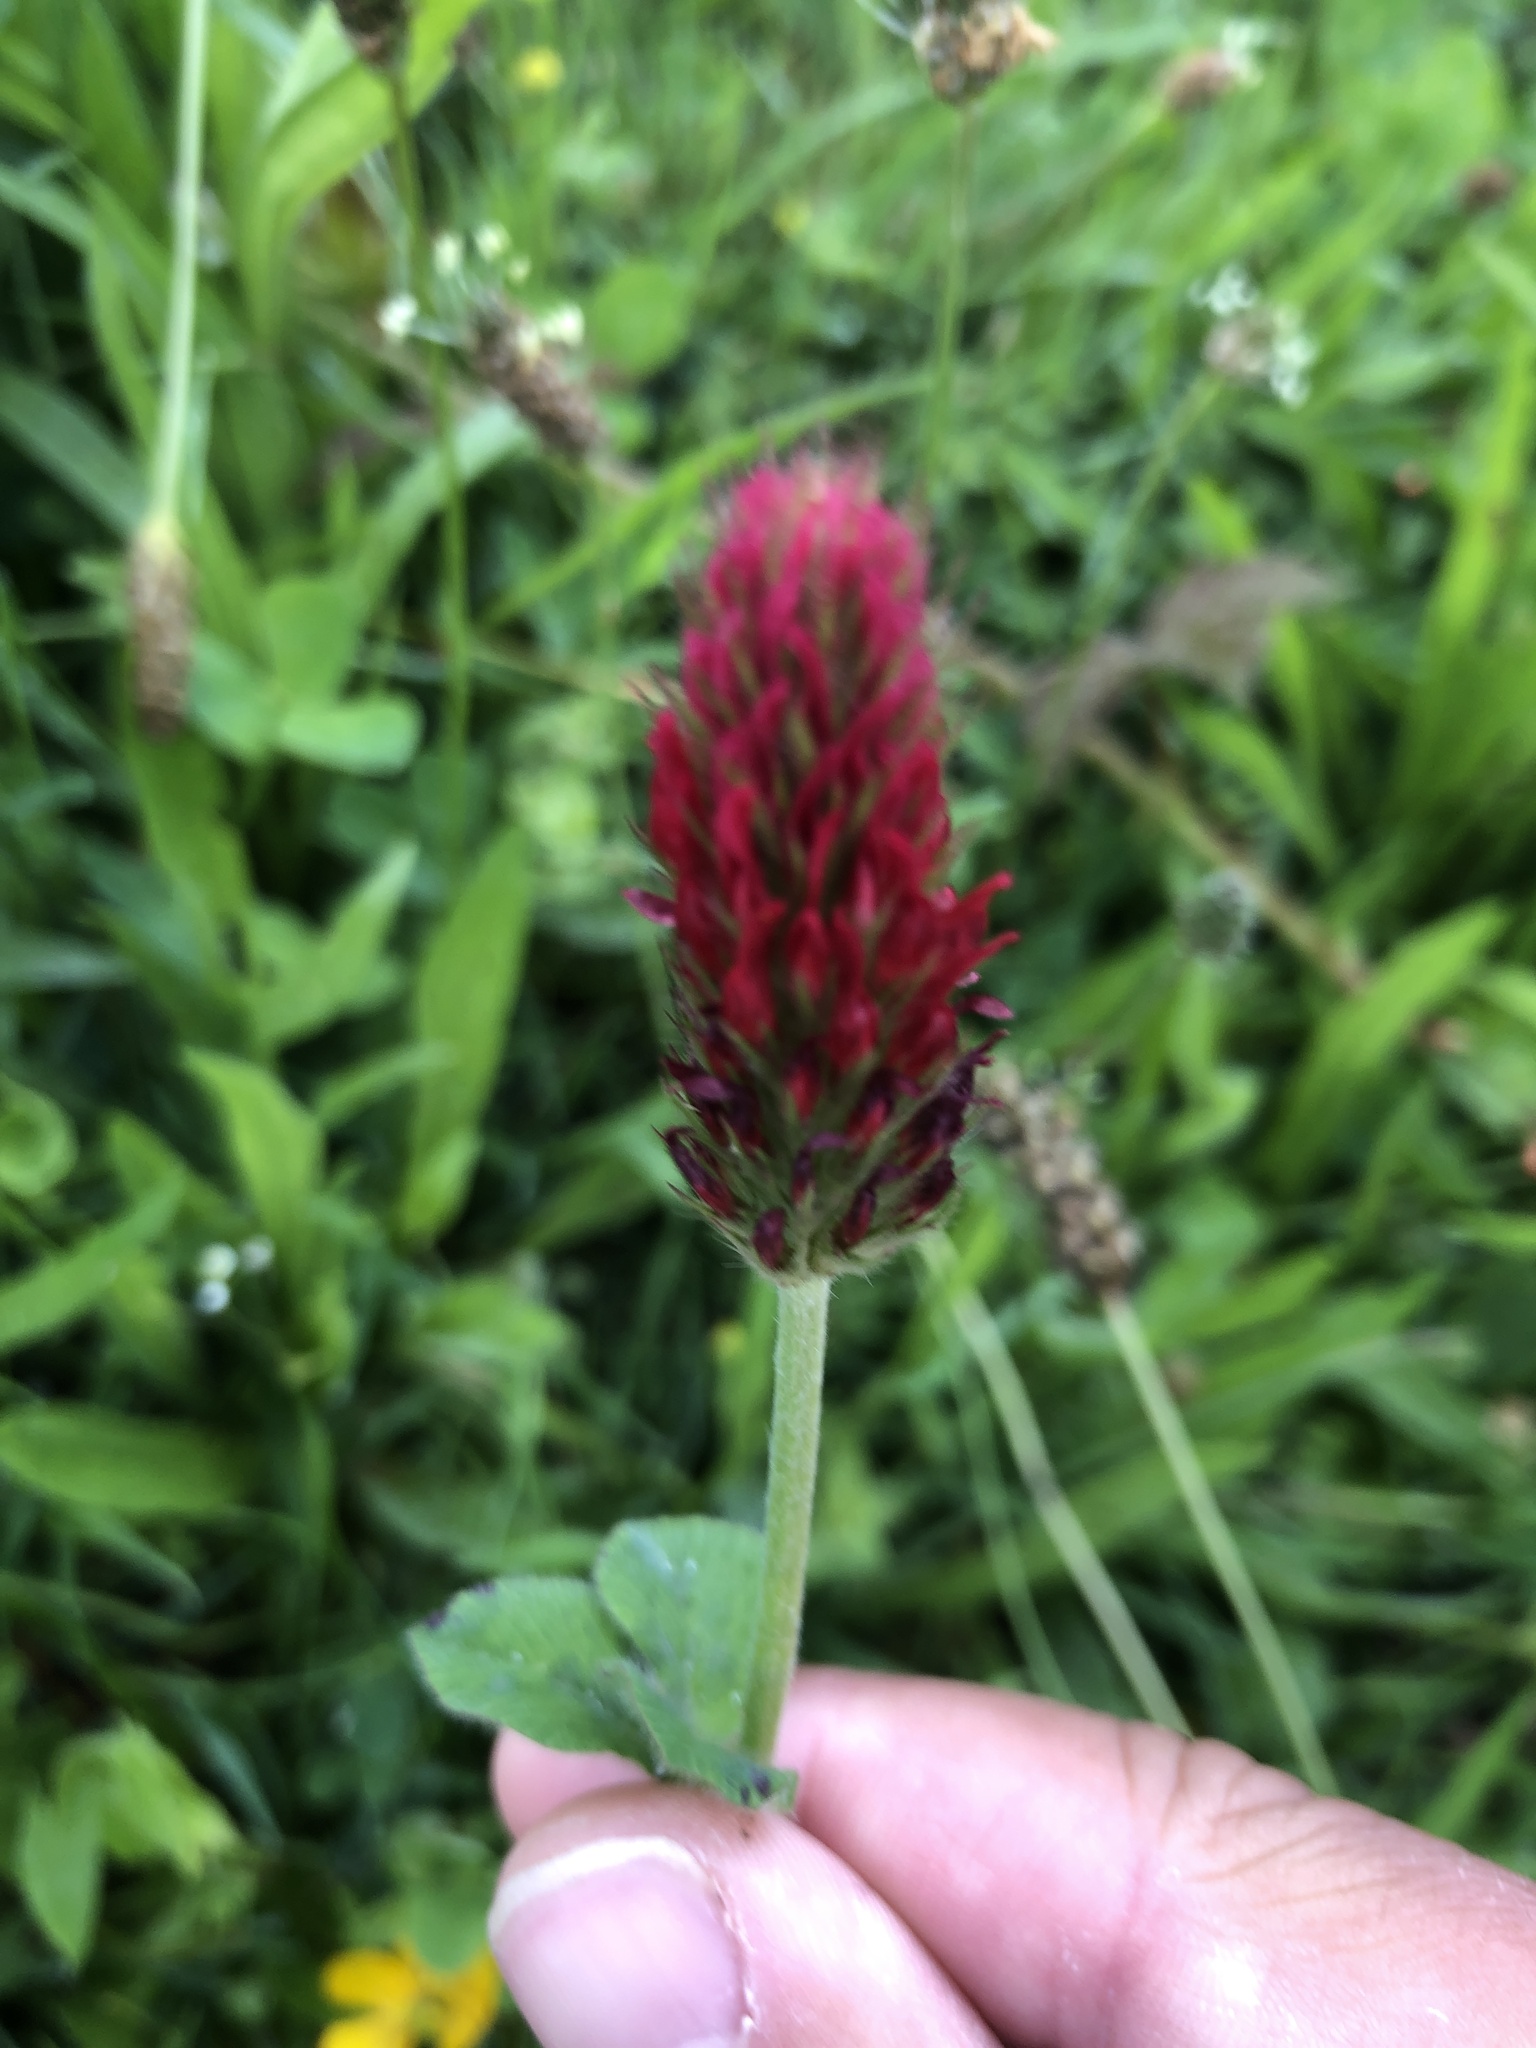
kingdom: Plantae
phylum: Tracheophyta
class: Magnoliopsida
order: Fabales
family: Fabaceae
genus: Trifolium
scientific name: Trifolium incarnatum
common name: Crimson clover
